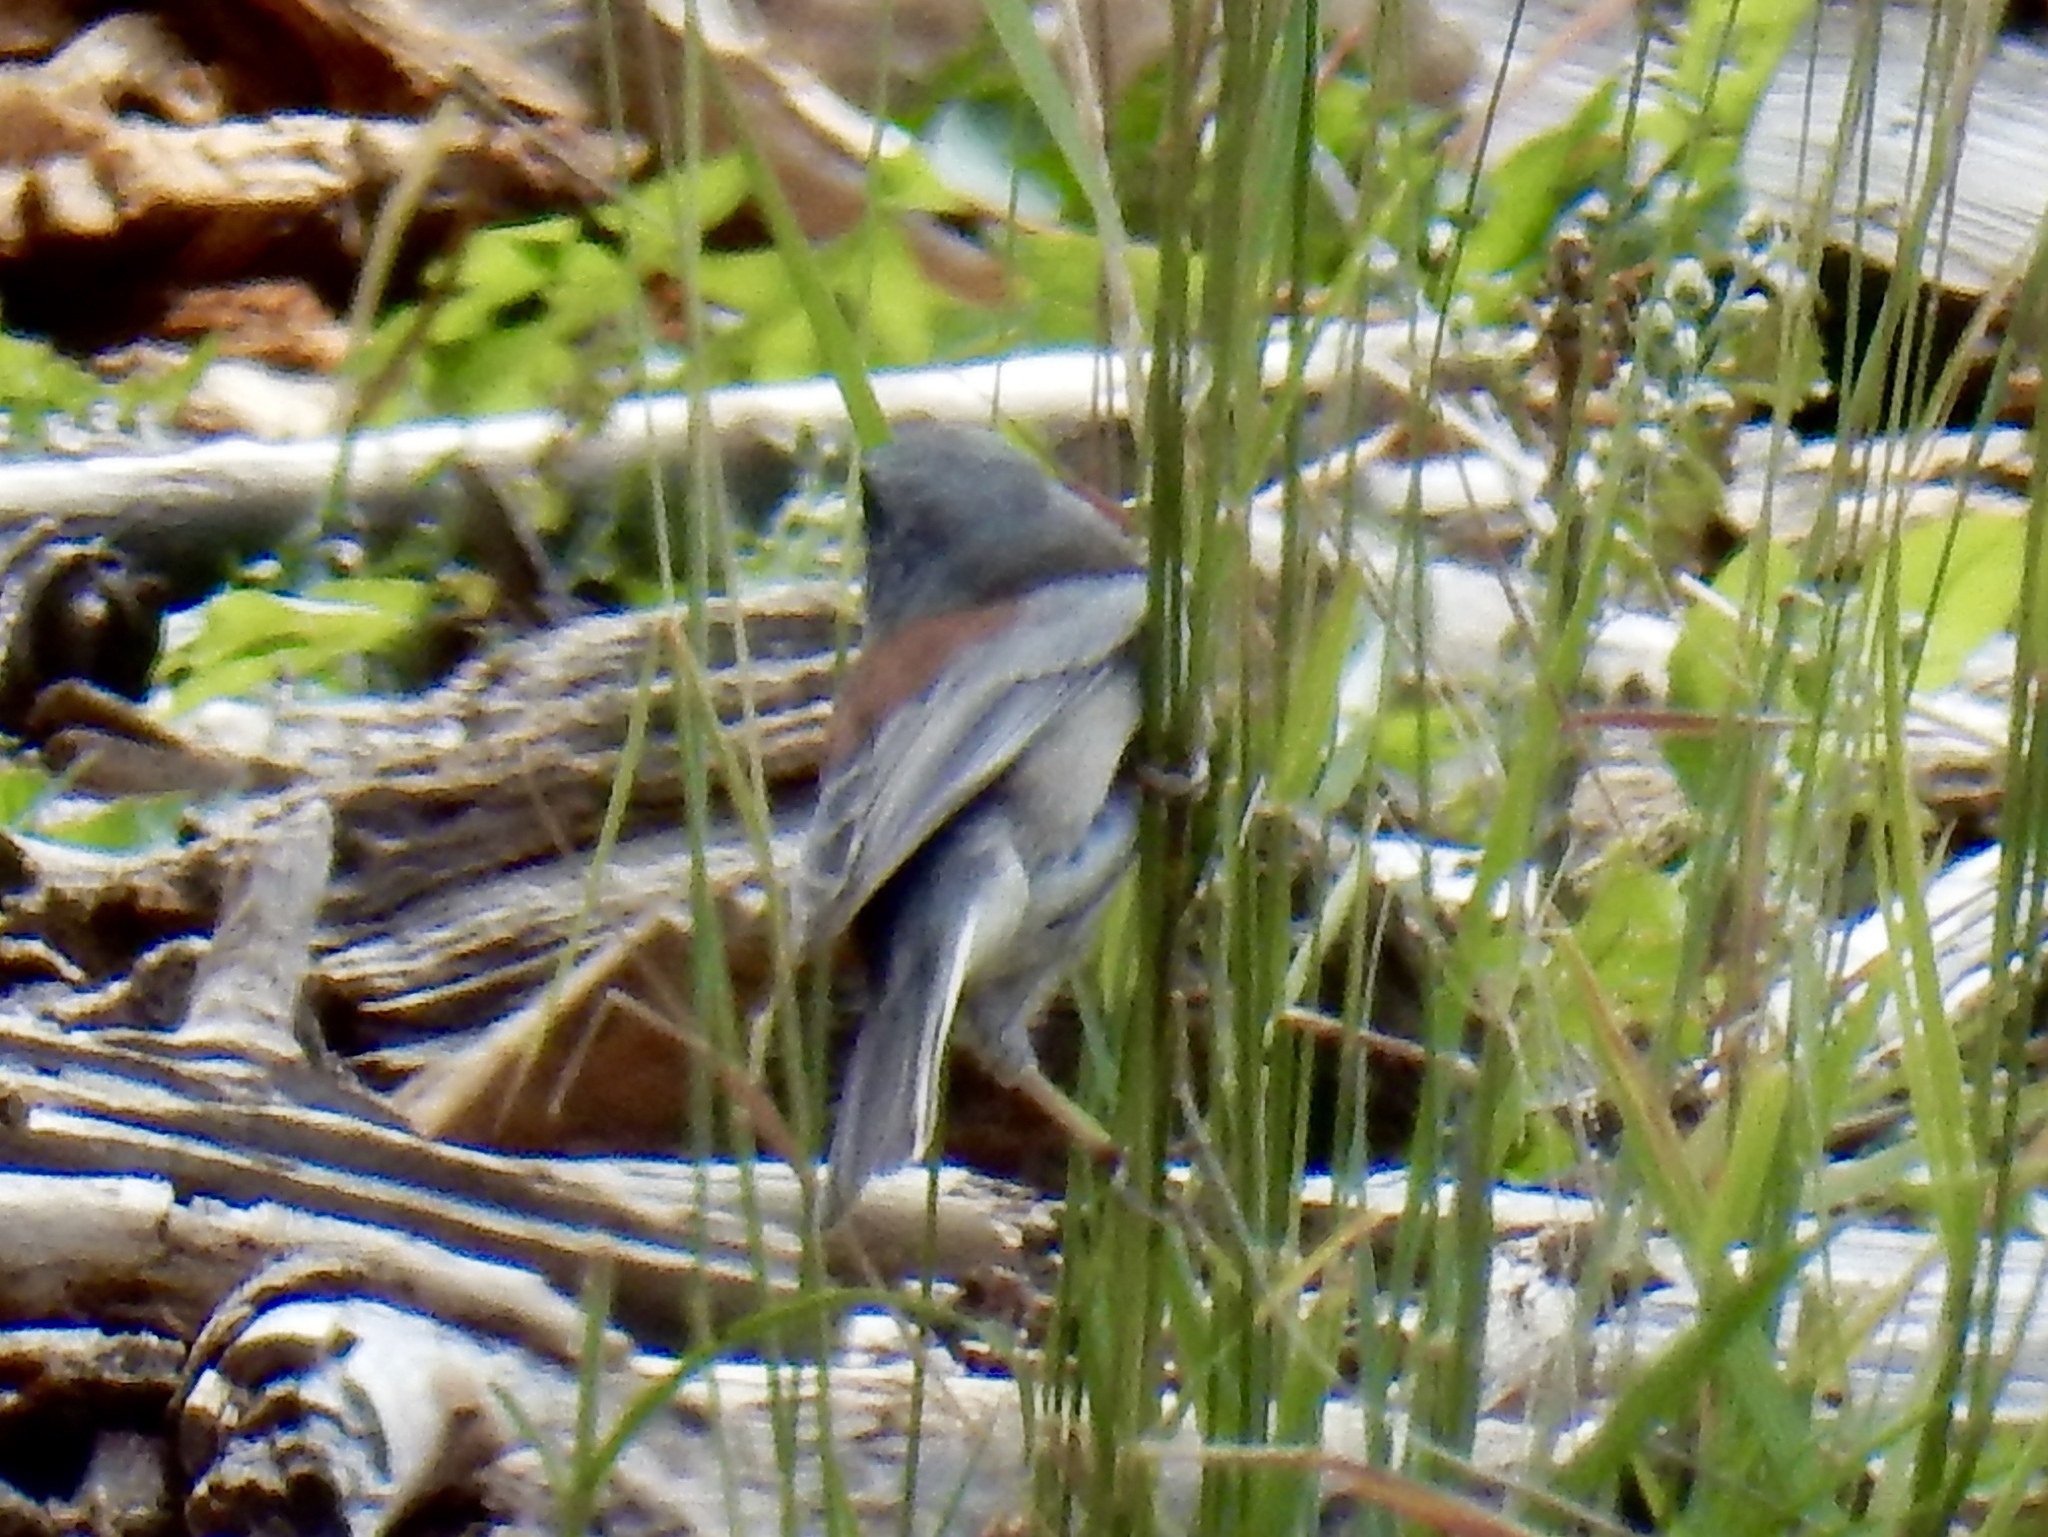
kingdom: Animalia
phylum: Chordata
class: Aves
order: Passeriformes
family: Passerellidae
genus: Junco
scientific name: Junco hyemalis
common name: Dark-eyed junco
